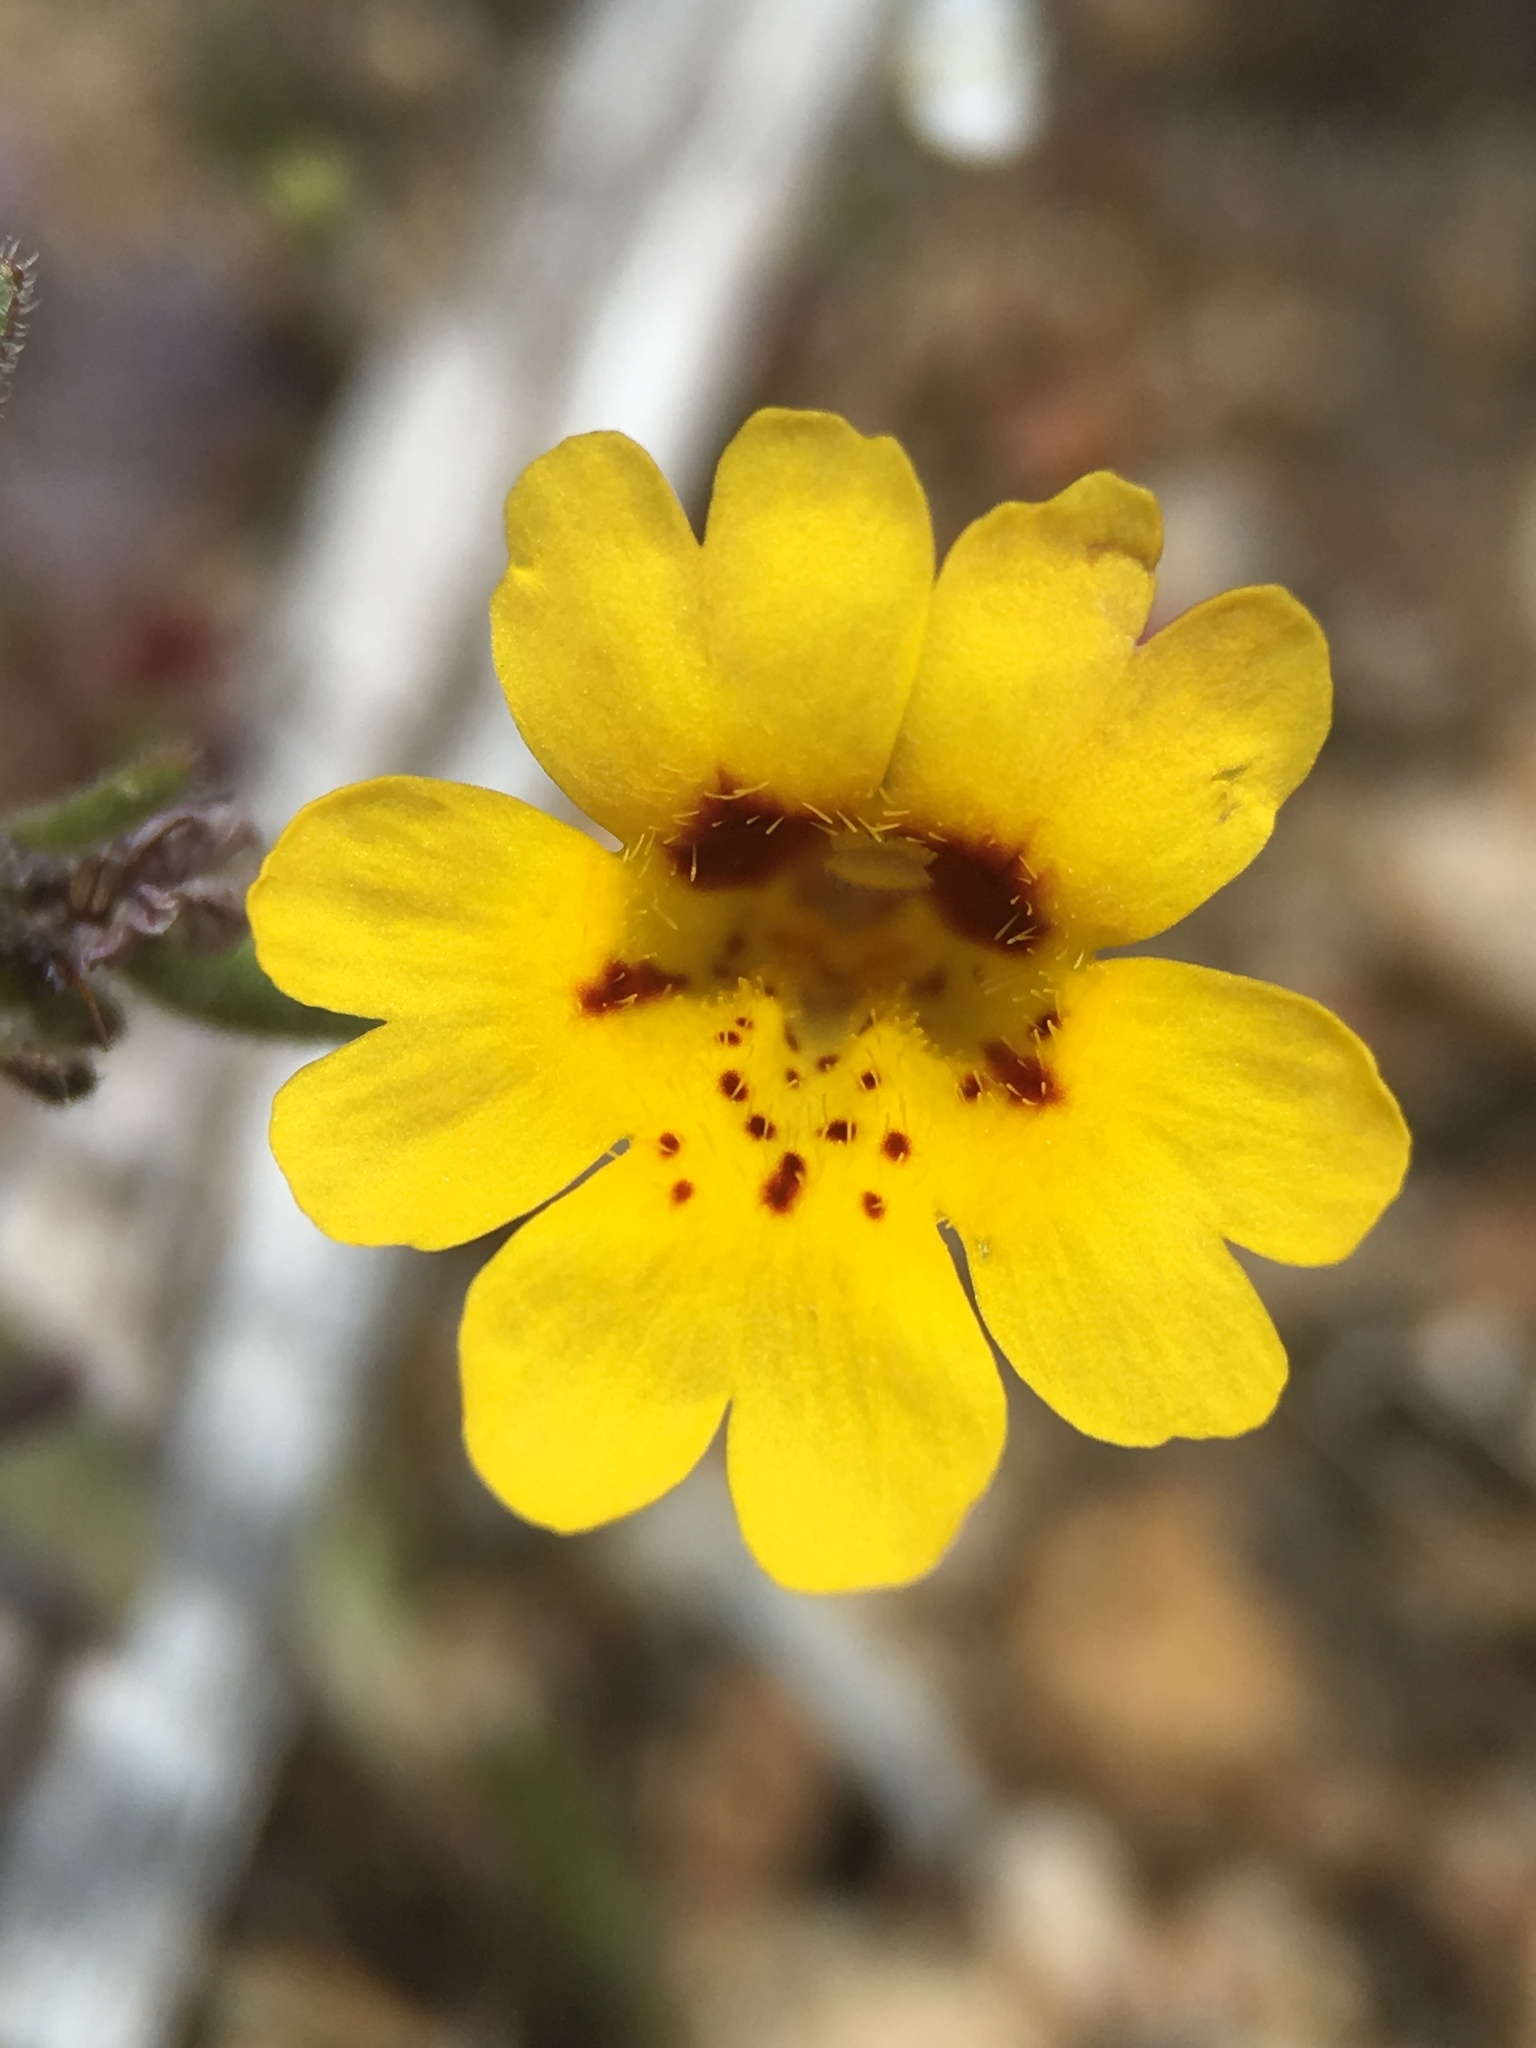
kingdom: Plantae
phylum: Tracheophyta
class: Magnoliopsida
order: Lamiales
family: Phrymaceae
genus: Erythranthe
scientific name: Erythranthe barbata
